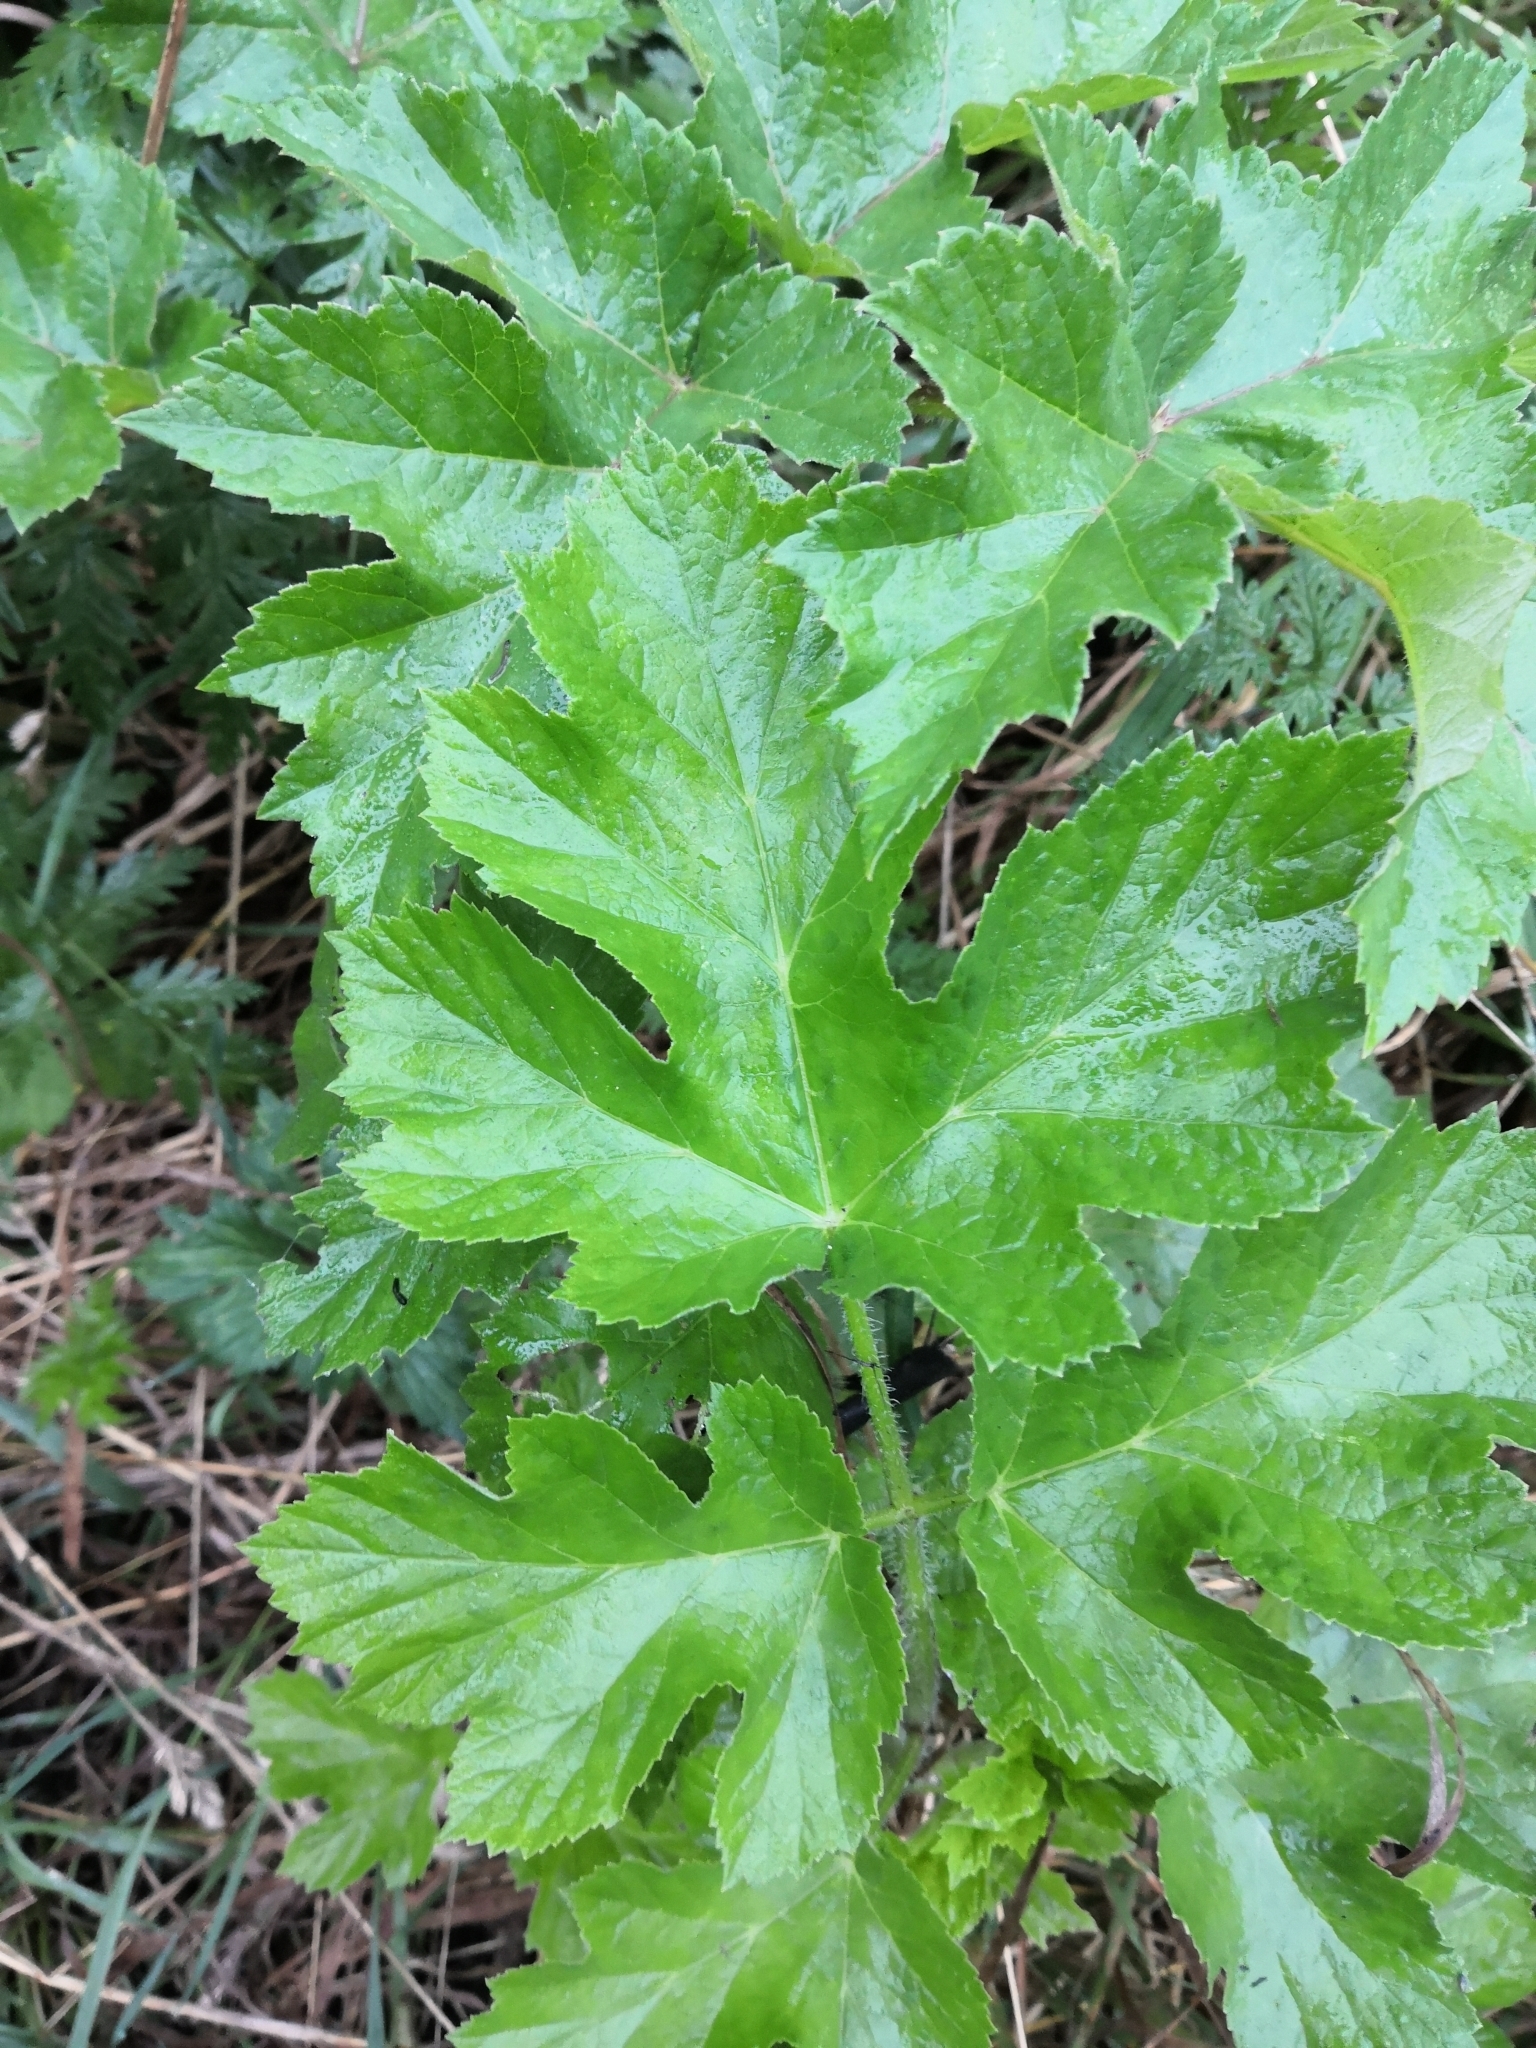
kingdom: Plantae
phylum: Tracheophyta
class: Magnoliopsida
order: Apiales
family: Apiaceae
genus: Heracleum
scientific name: Heracleum sphondylium
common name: Hogweed
